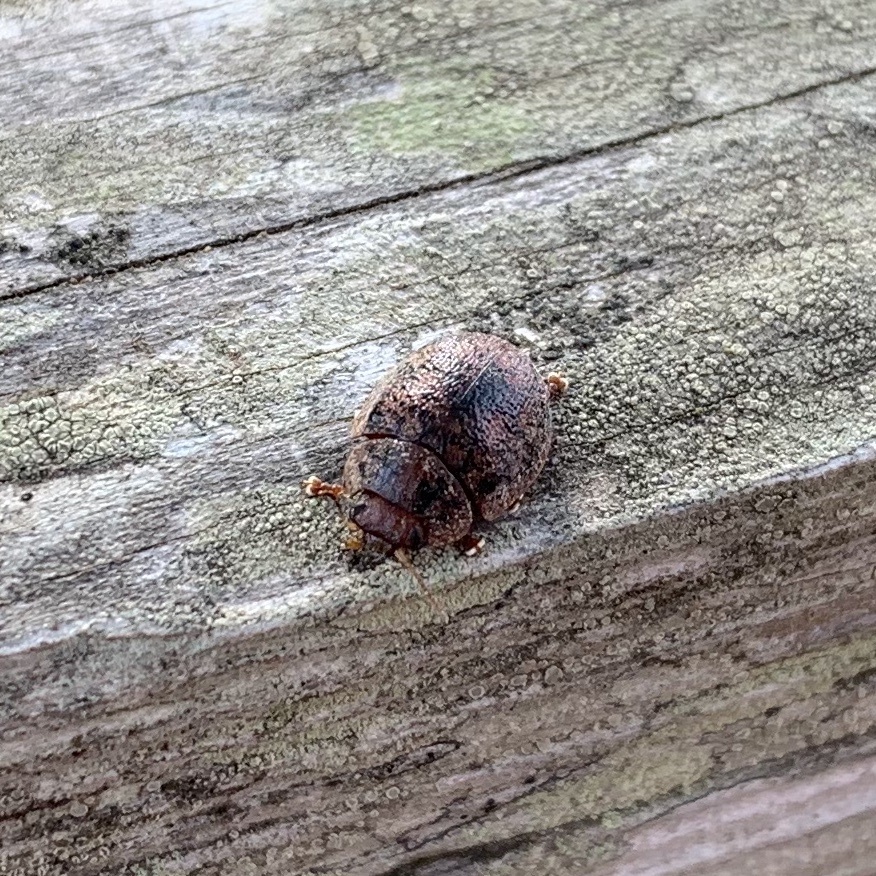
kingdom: Animalia
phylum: Arthropoda
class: Insecta
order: Coleoptera
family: Chrysomelidae
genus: Trachymela
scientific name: Trachymela sloanei
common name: Australian tortoise beetle
